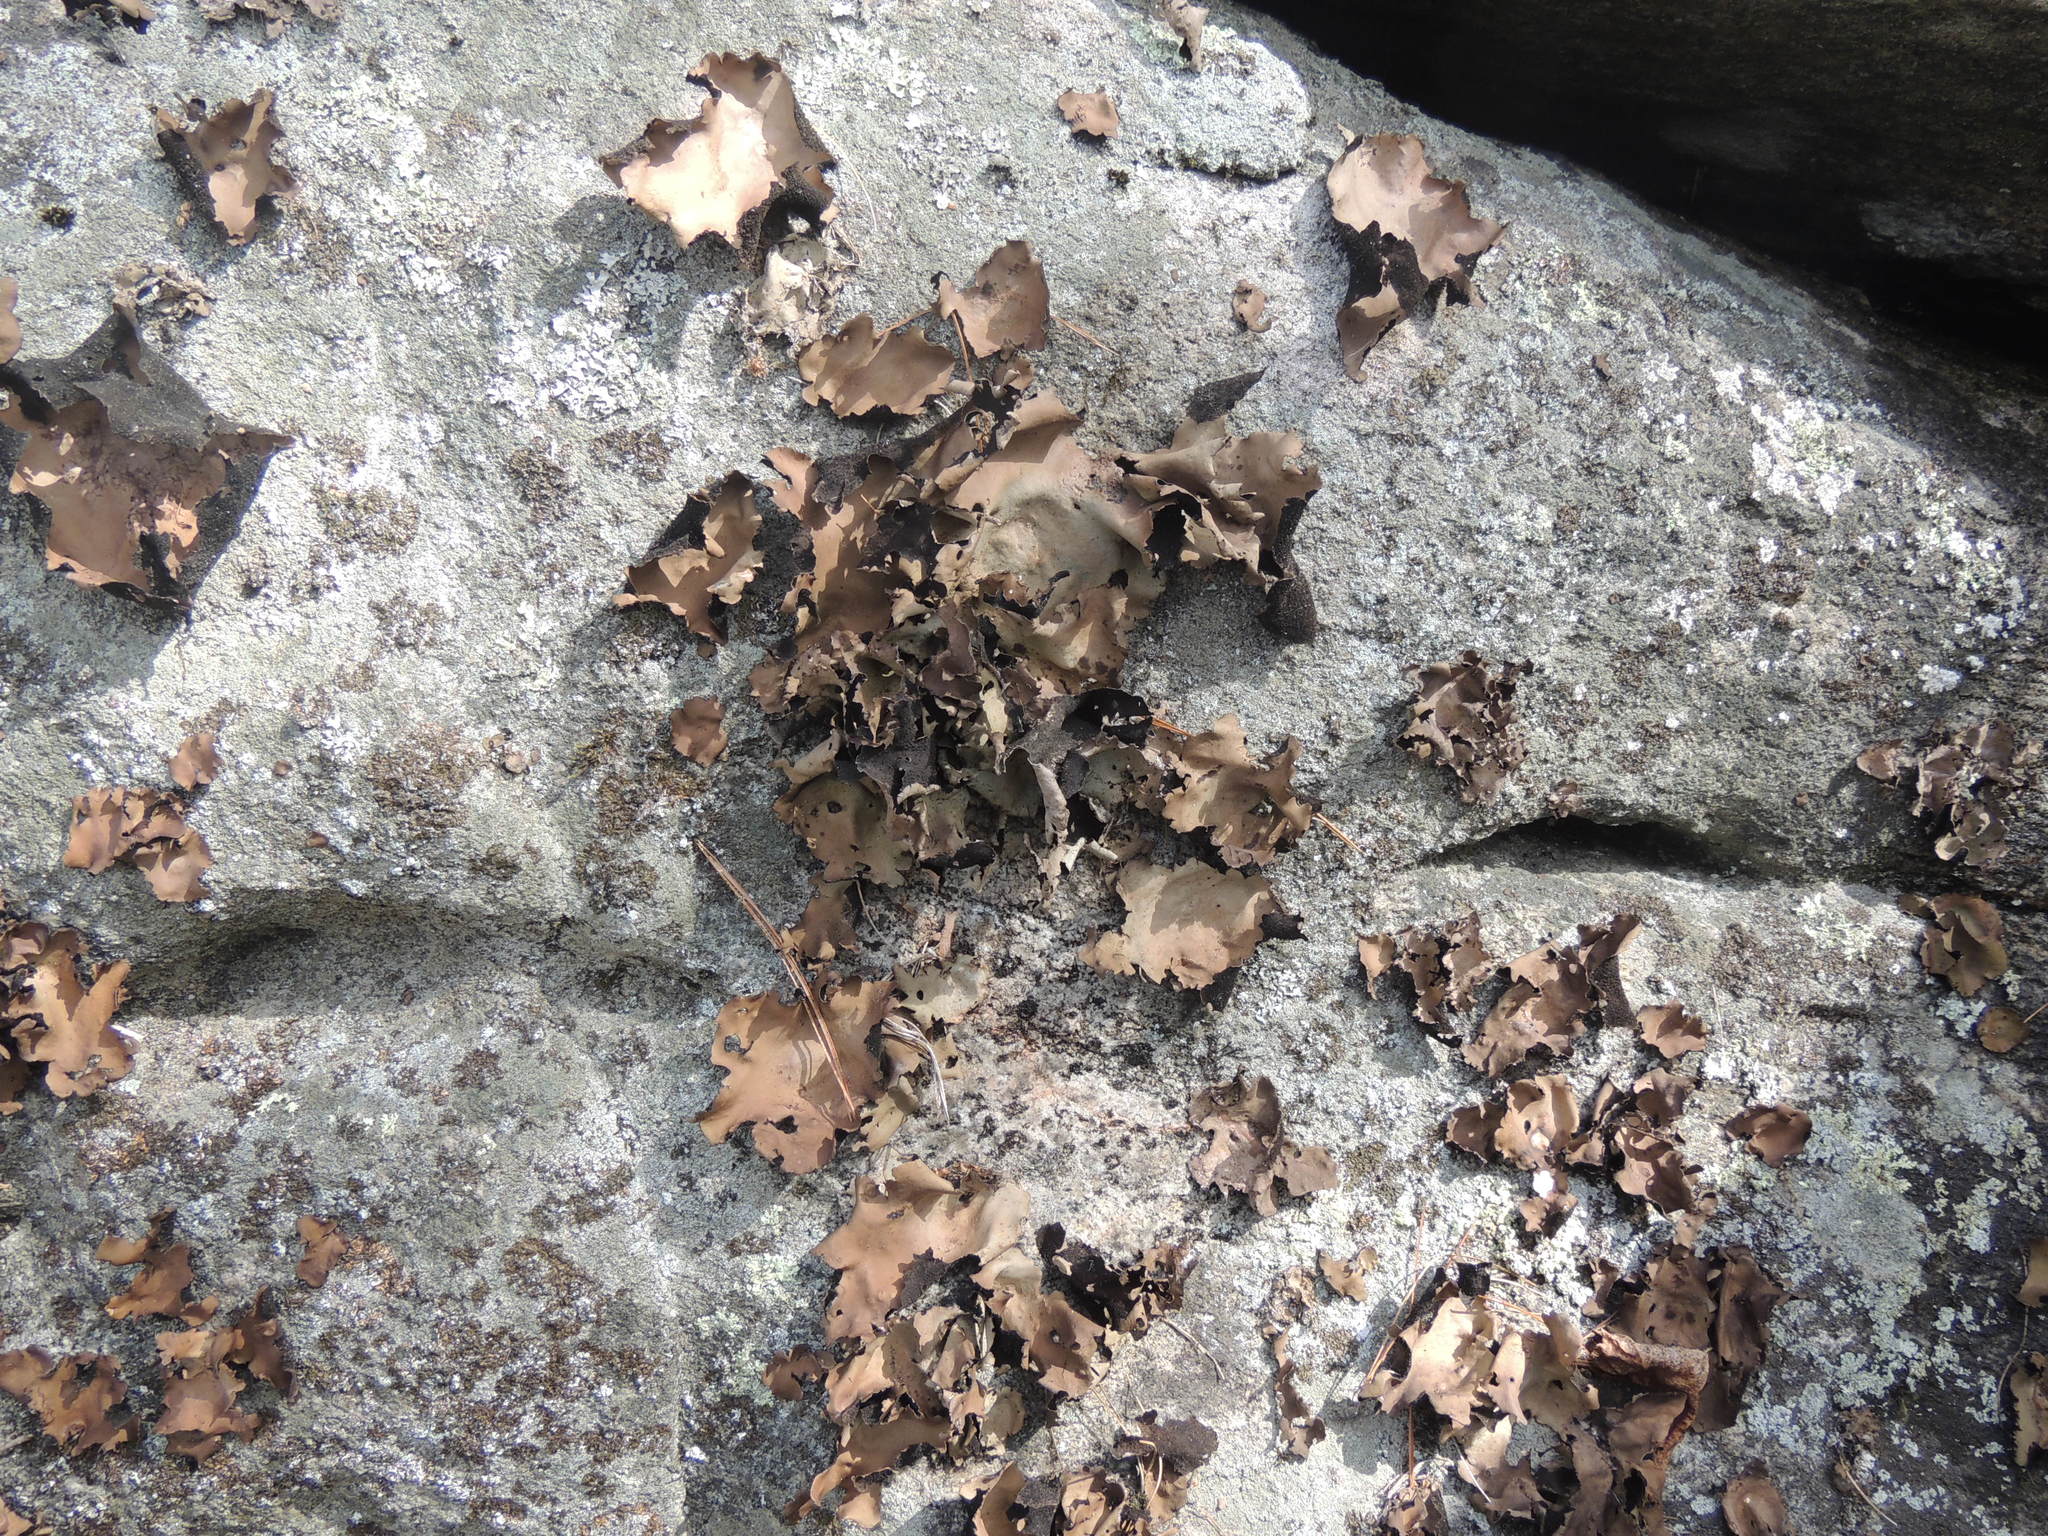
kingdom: Fungi
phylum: Ascomycota
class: Lecanoromycetes
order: Umbilicariales
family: Umbilicariaceae
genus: Umbilicaria
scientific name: Umbilicaria mammulata
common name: Smooth rock tripe
